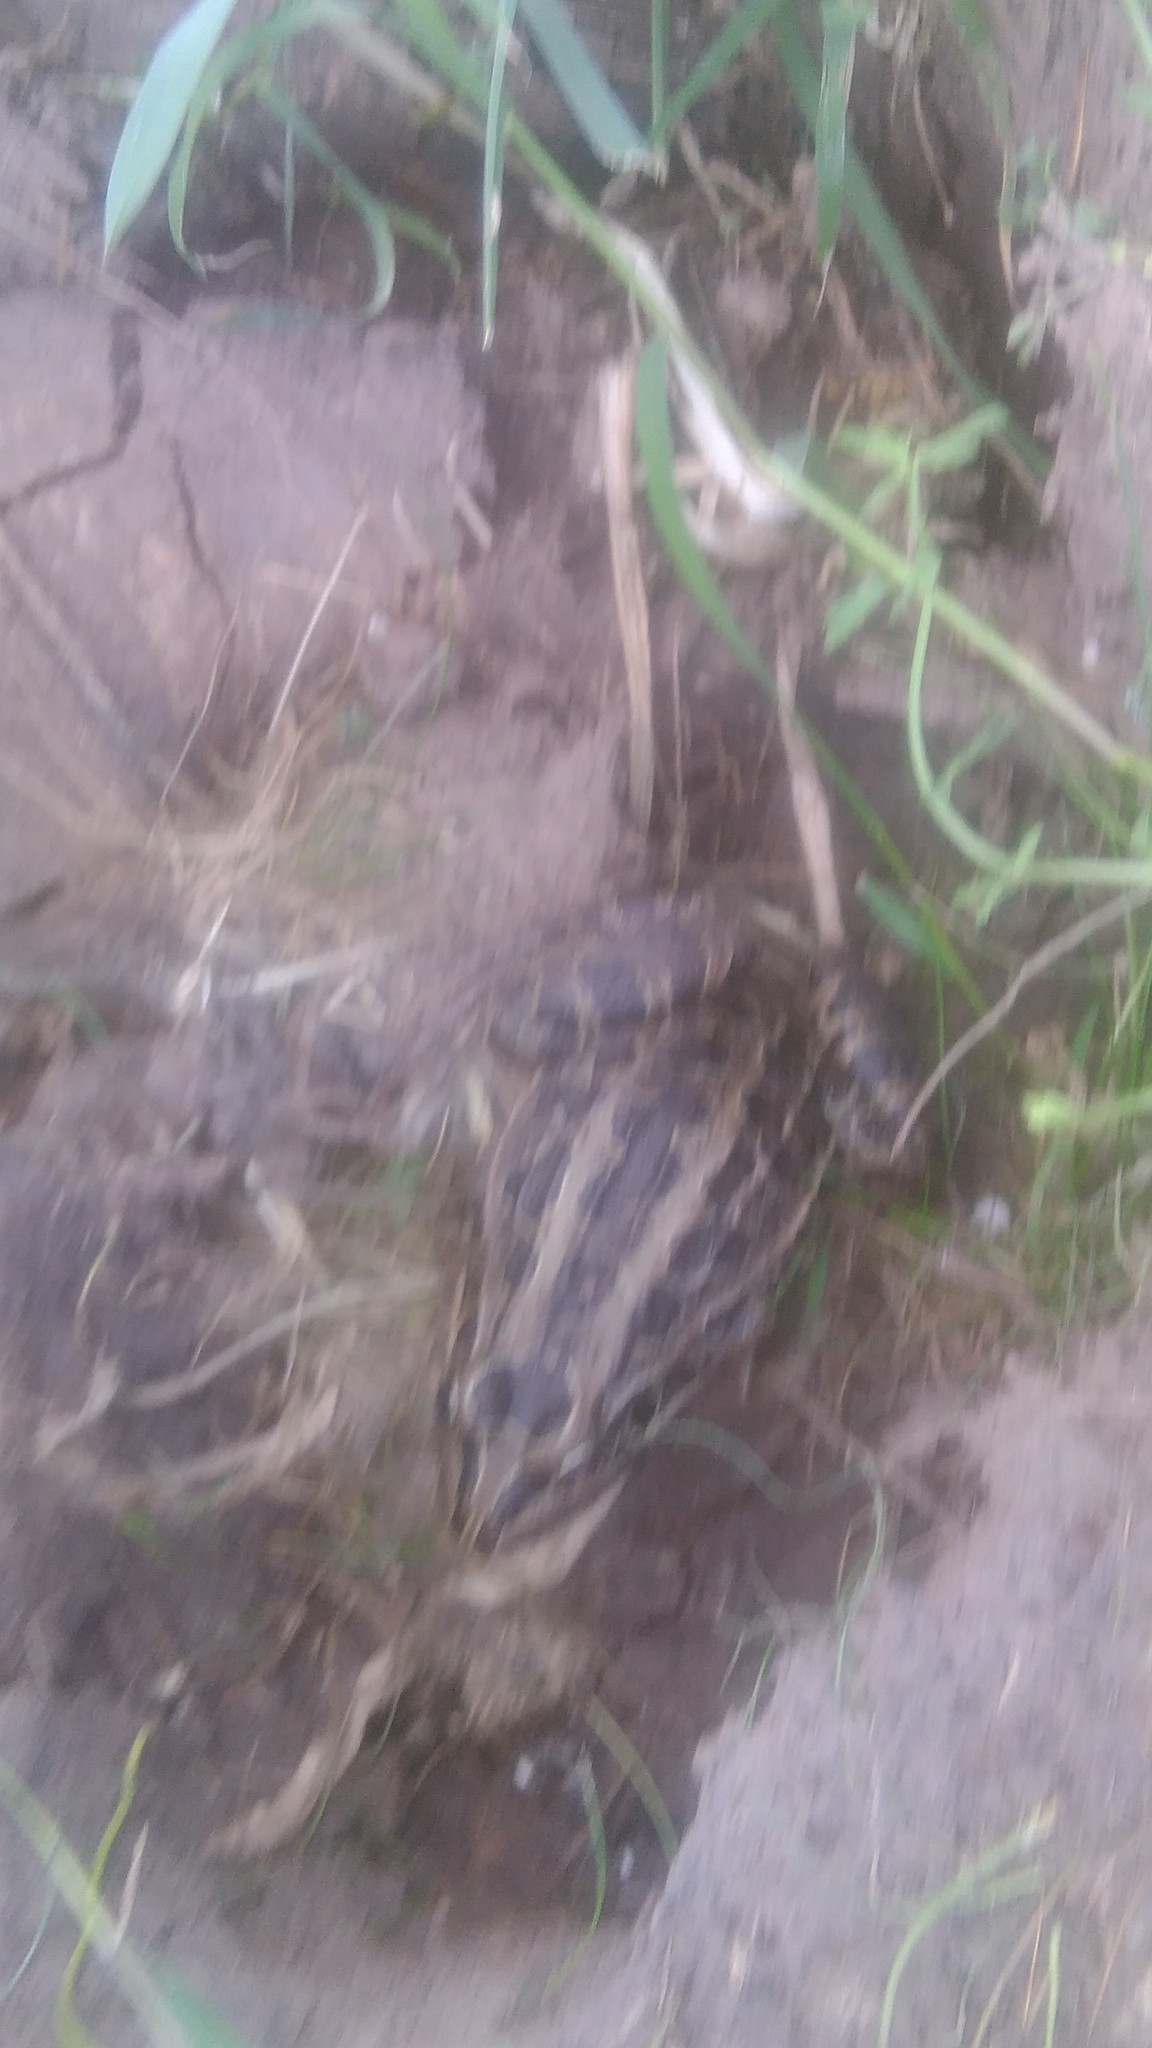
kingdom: Animalia
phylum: Chordata
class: Amphibia
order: Anura
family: Leptodactylidae
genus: Leptodactylus
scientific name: Leptodactylus luctator
